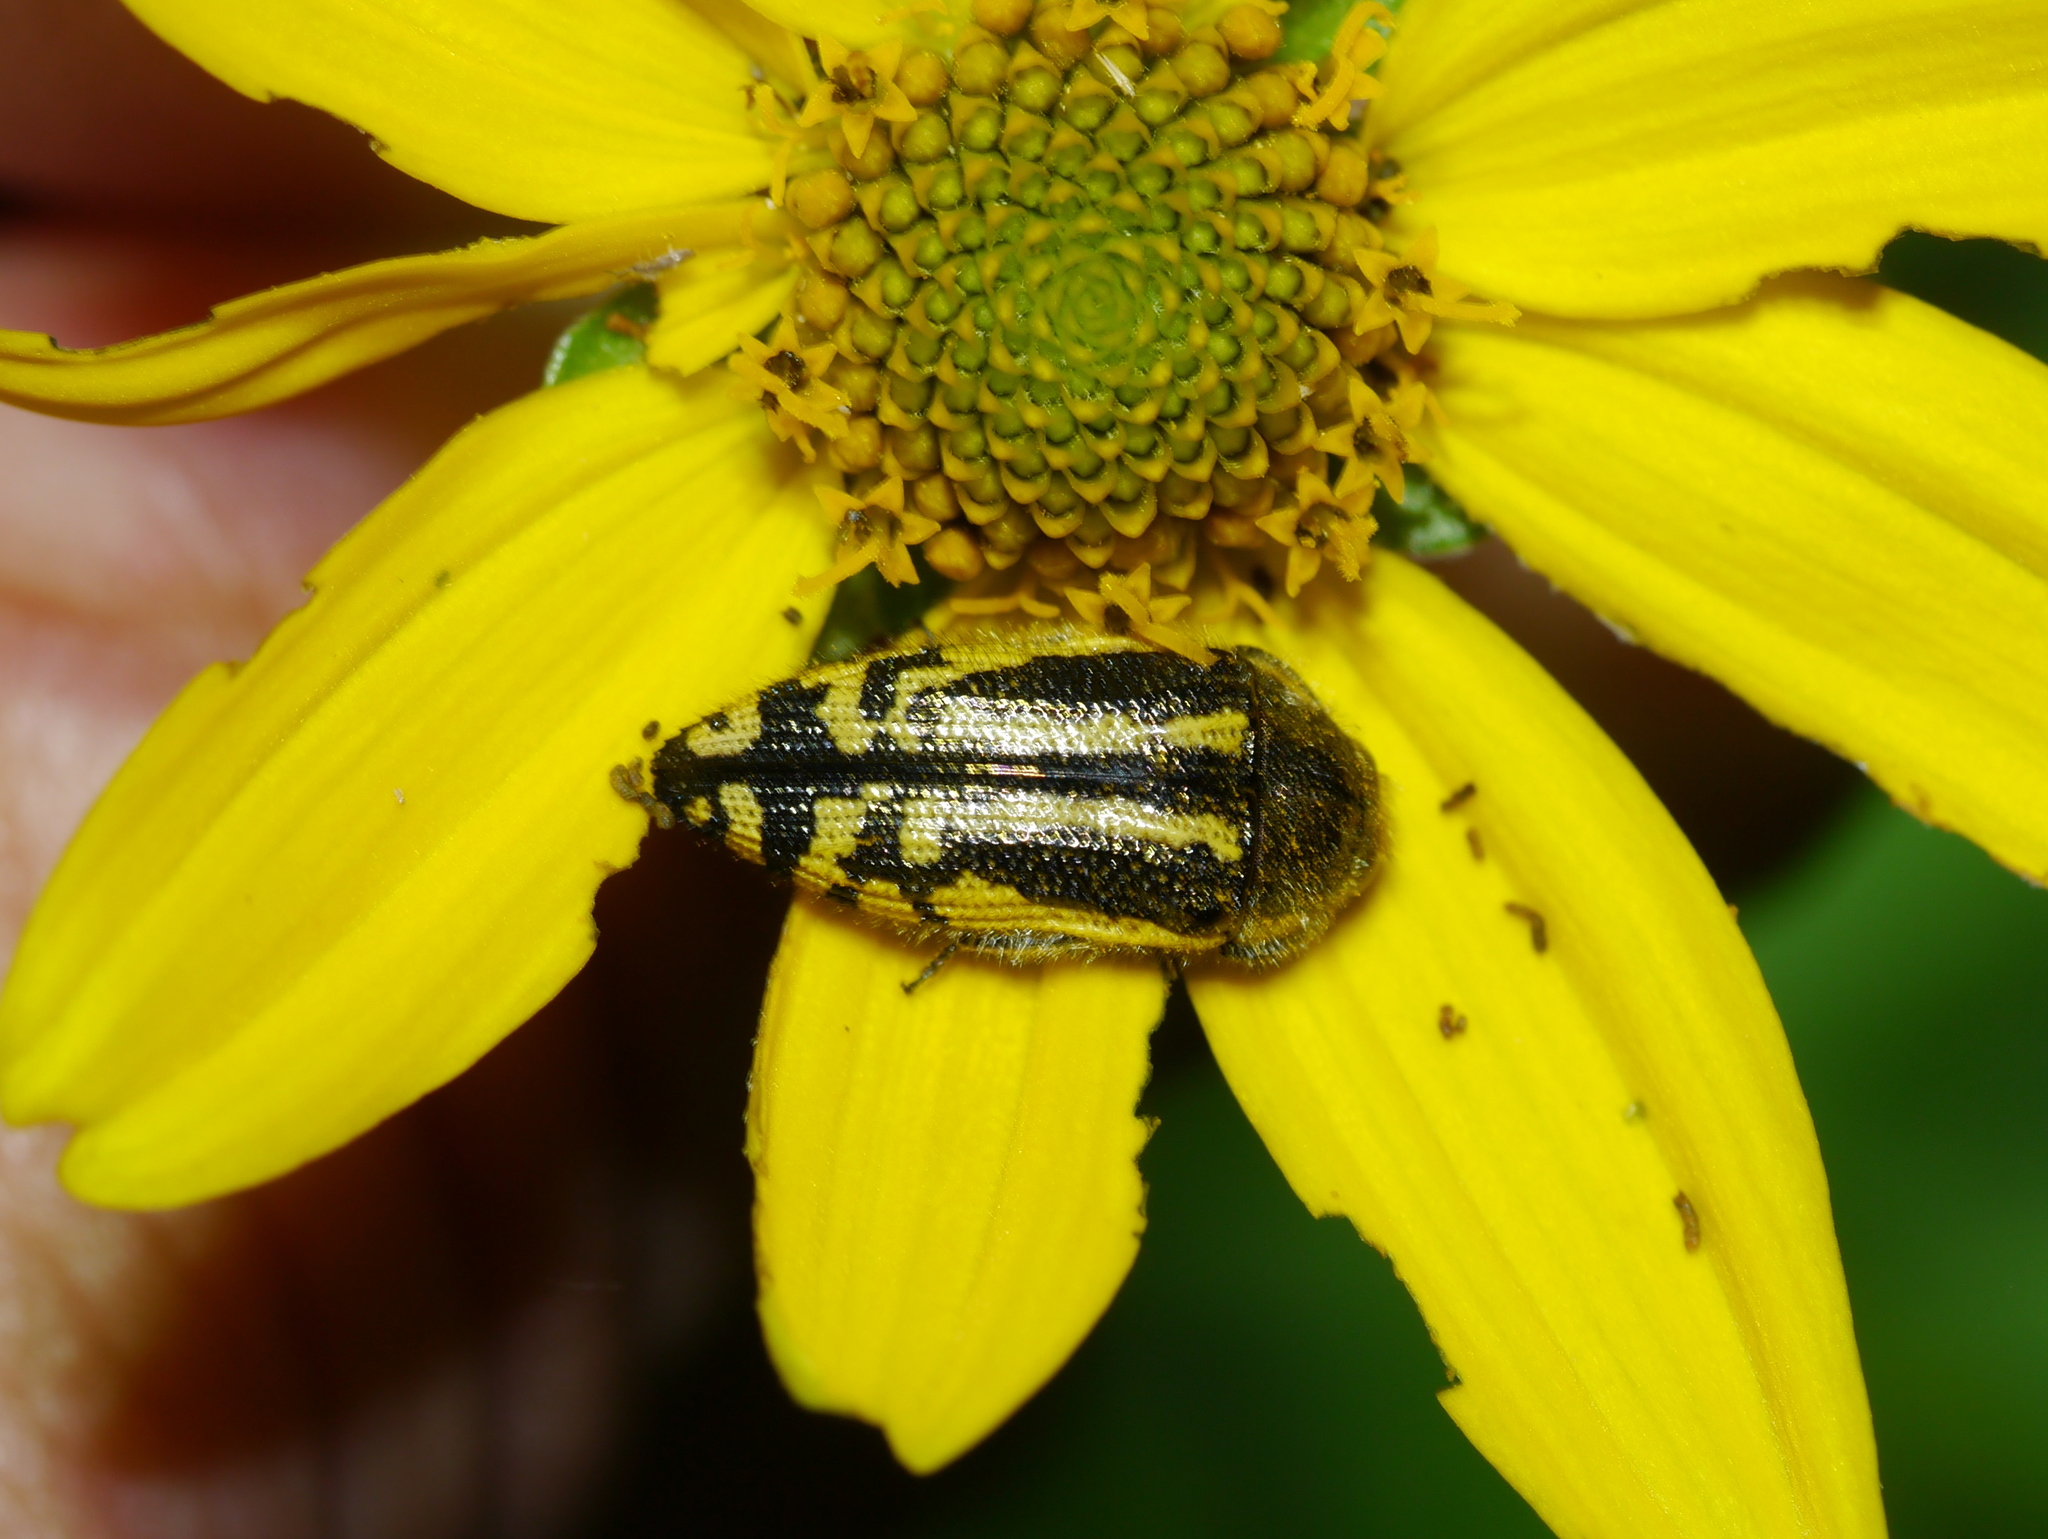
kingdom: Animalia
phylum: Arthropoda
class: Insecta
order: Coleoptera
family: Buprestidae
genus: Acmaeodera
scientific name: Acmaeodera amplicollis
